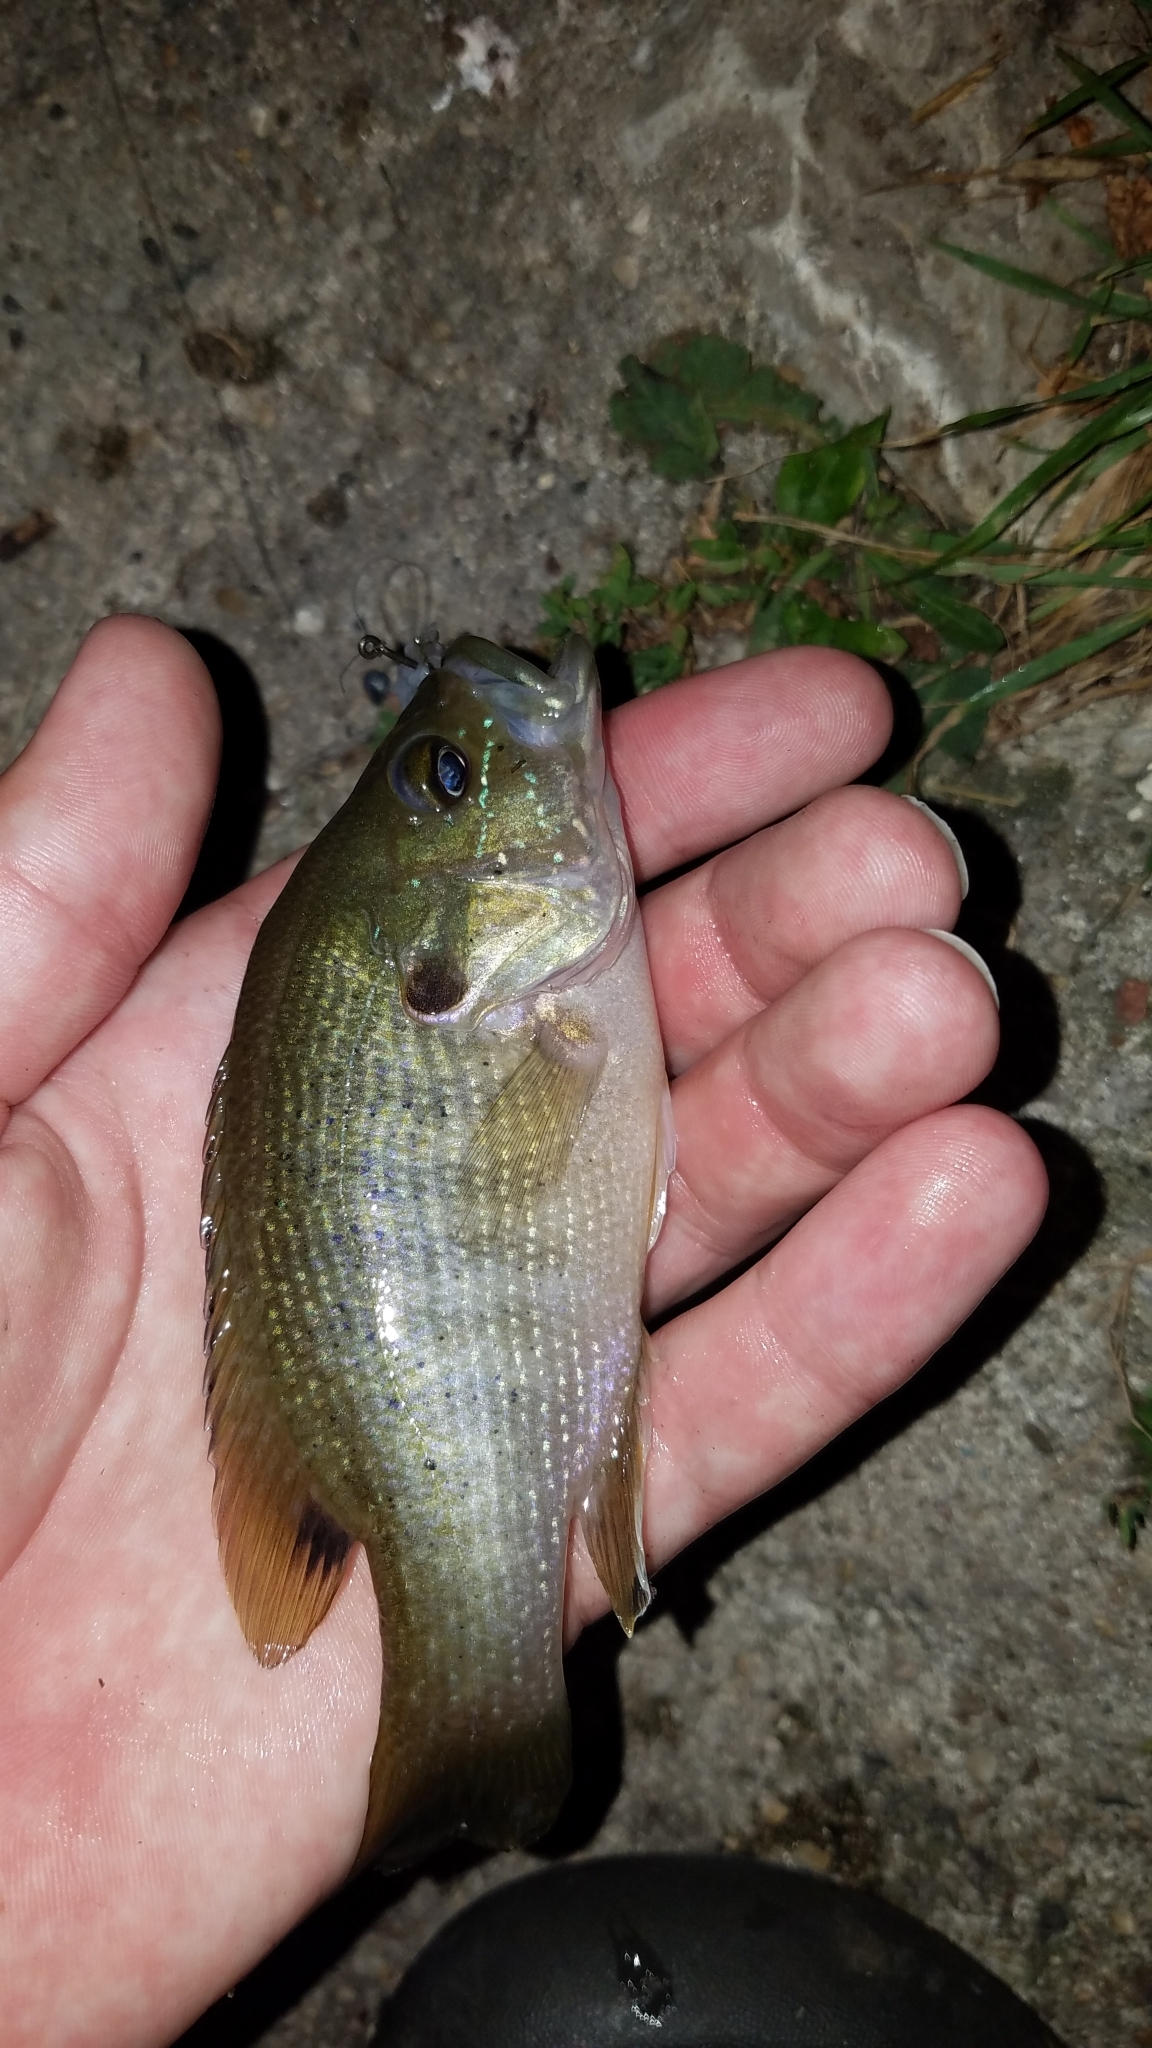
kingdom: Animalia
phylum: Chordata
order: Perciformes
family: Centrarchidae
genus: Lepomis
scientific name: Lepomis cyanellus
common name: Green sunfish
